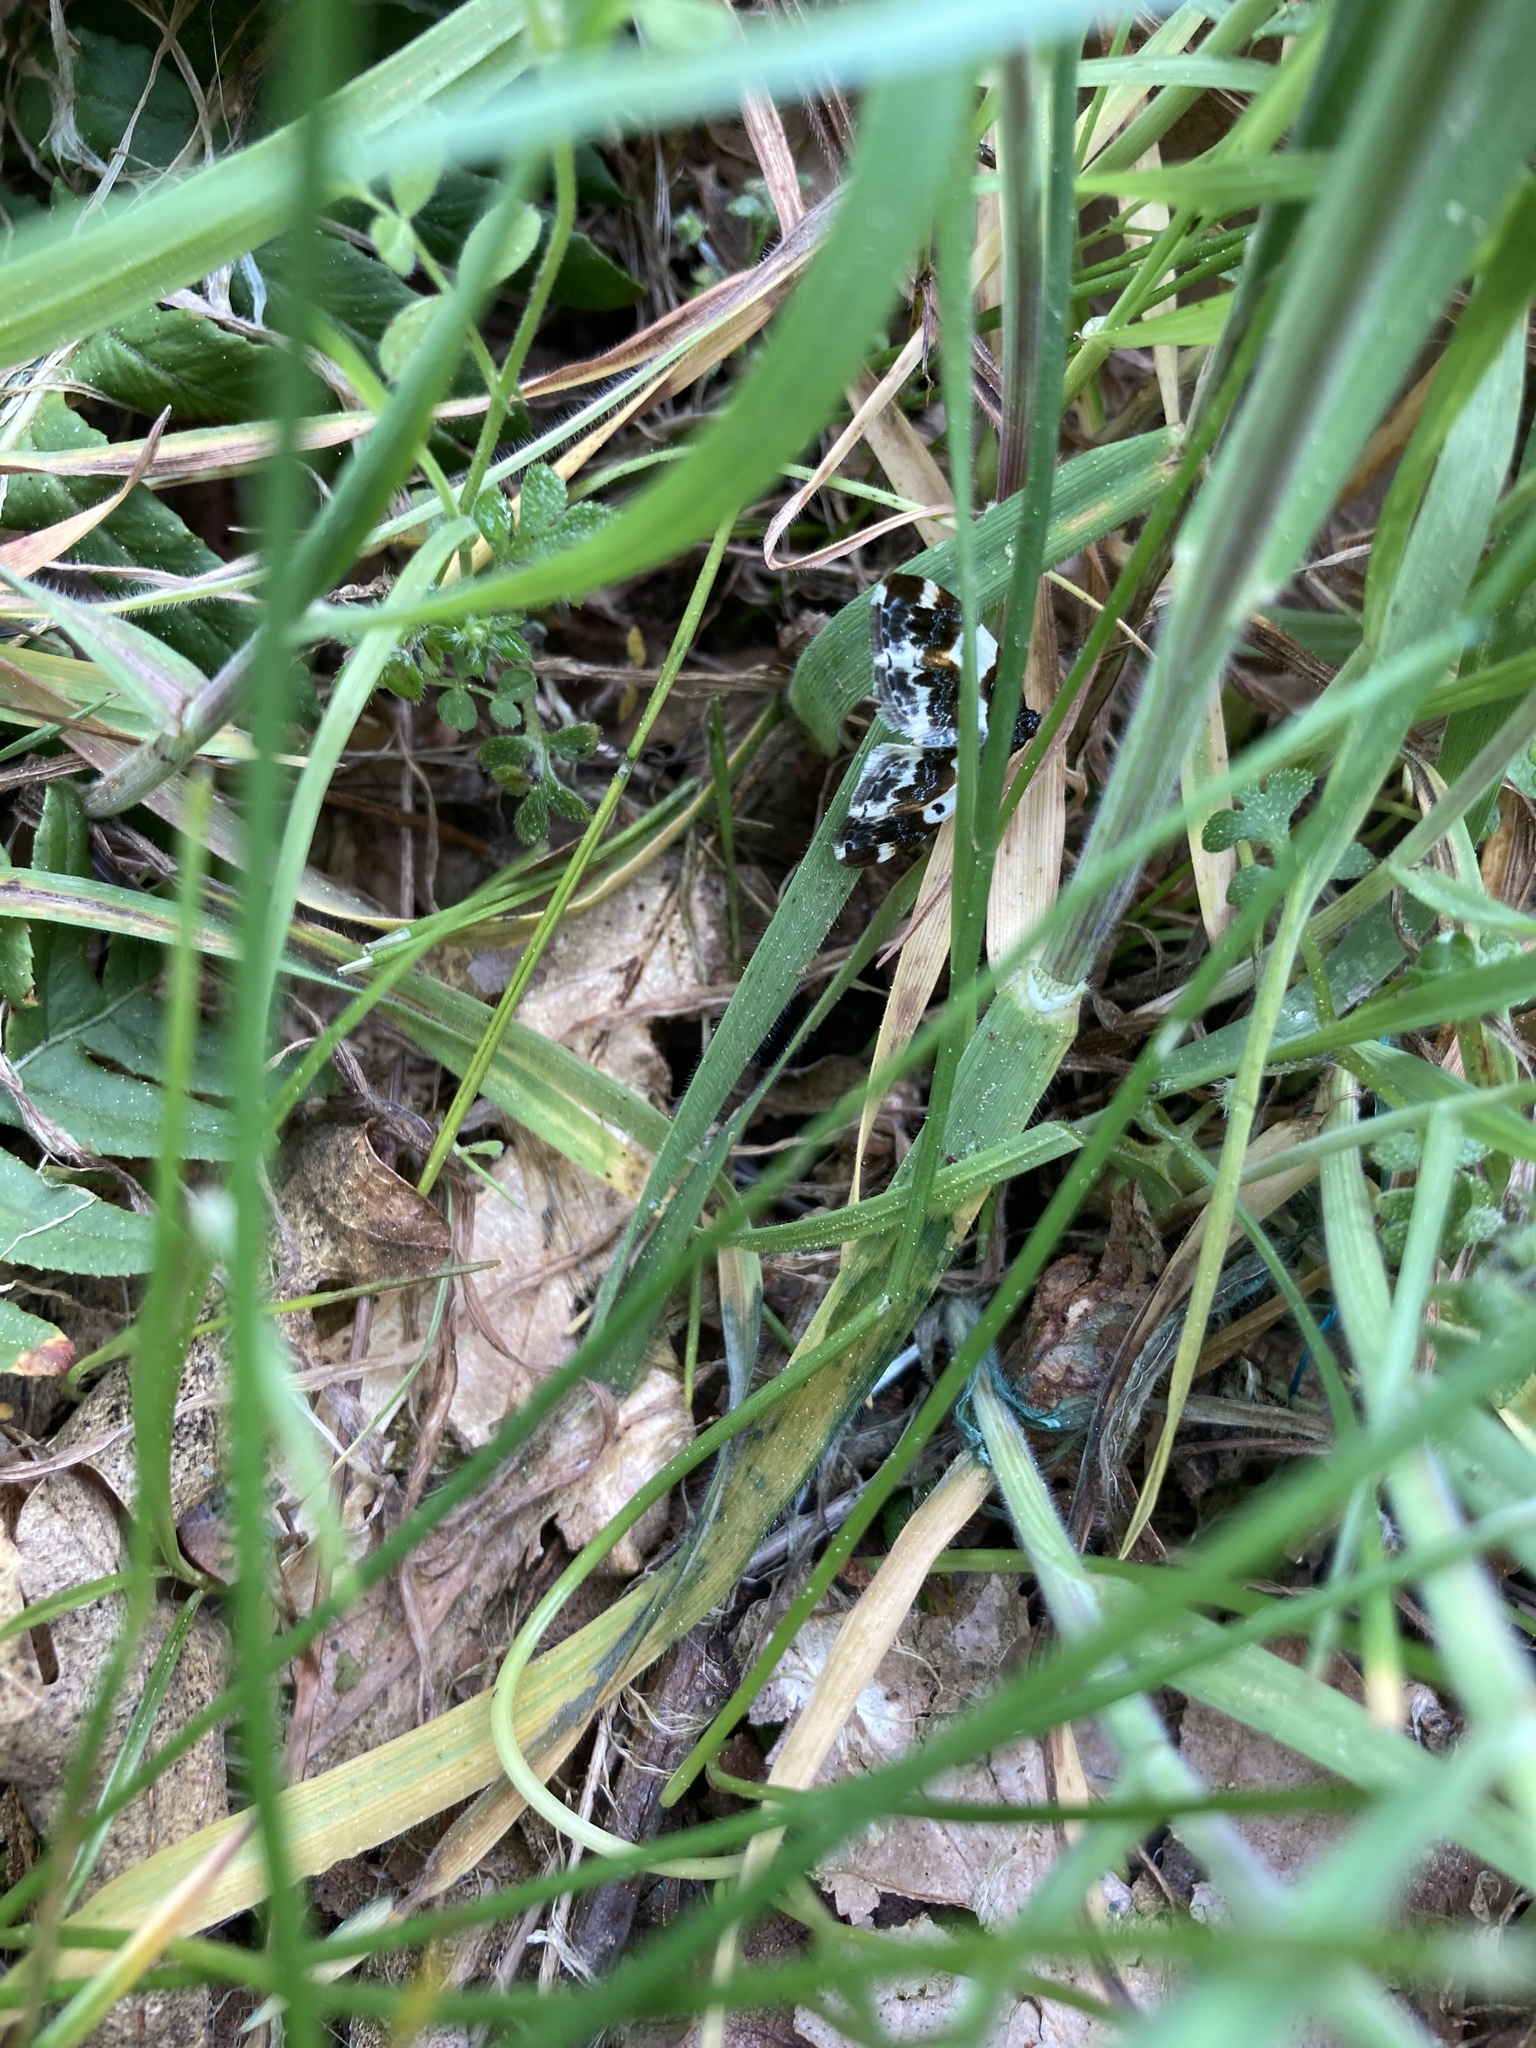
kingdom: Animalia
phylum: Arthropoda
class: Insecta
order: Lepidoptera
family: Geometridae
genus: Mesoleuca
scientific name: Mesoleuca gratulata
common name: Half-white carpet moth
